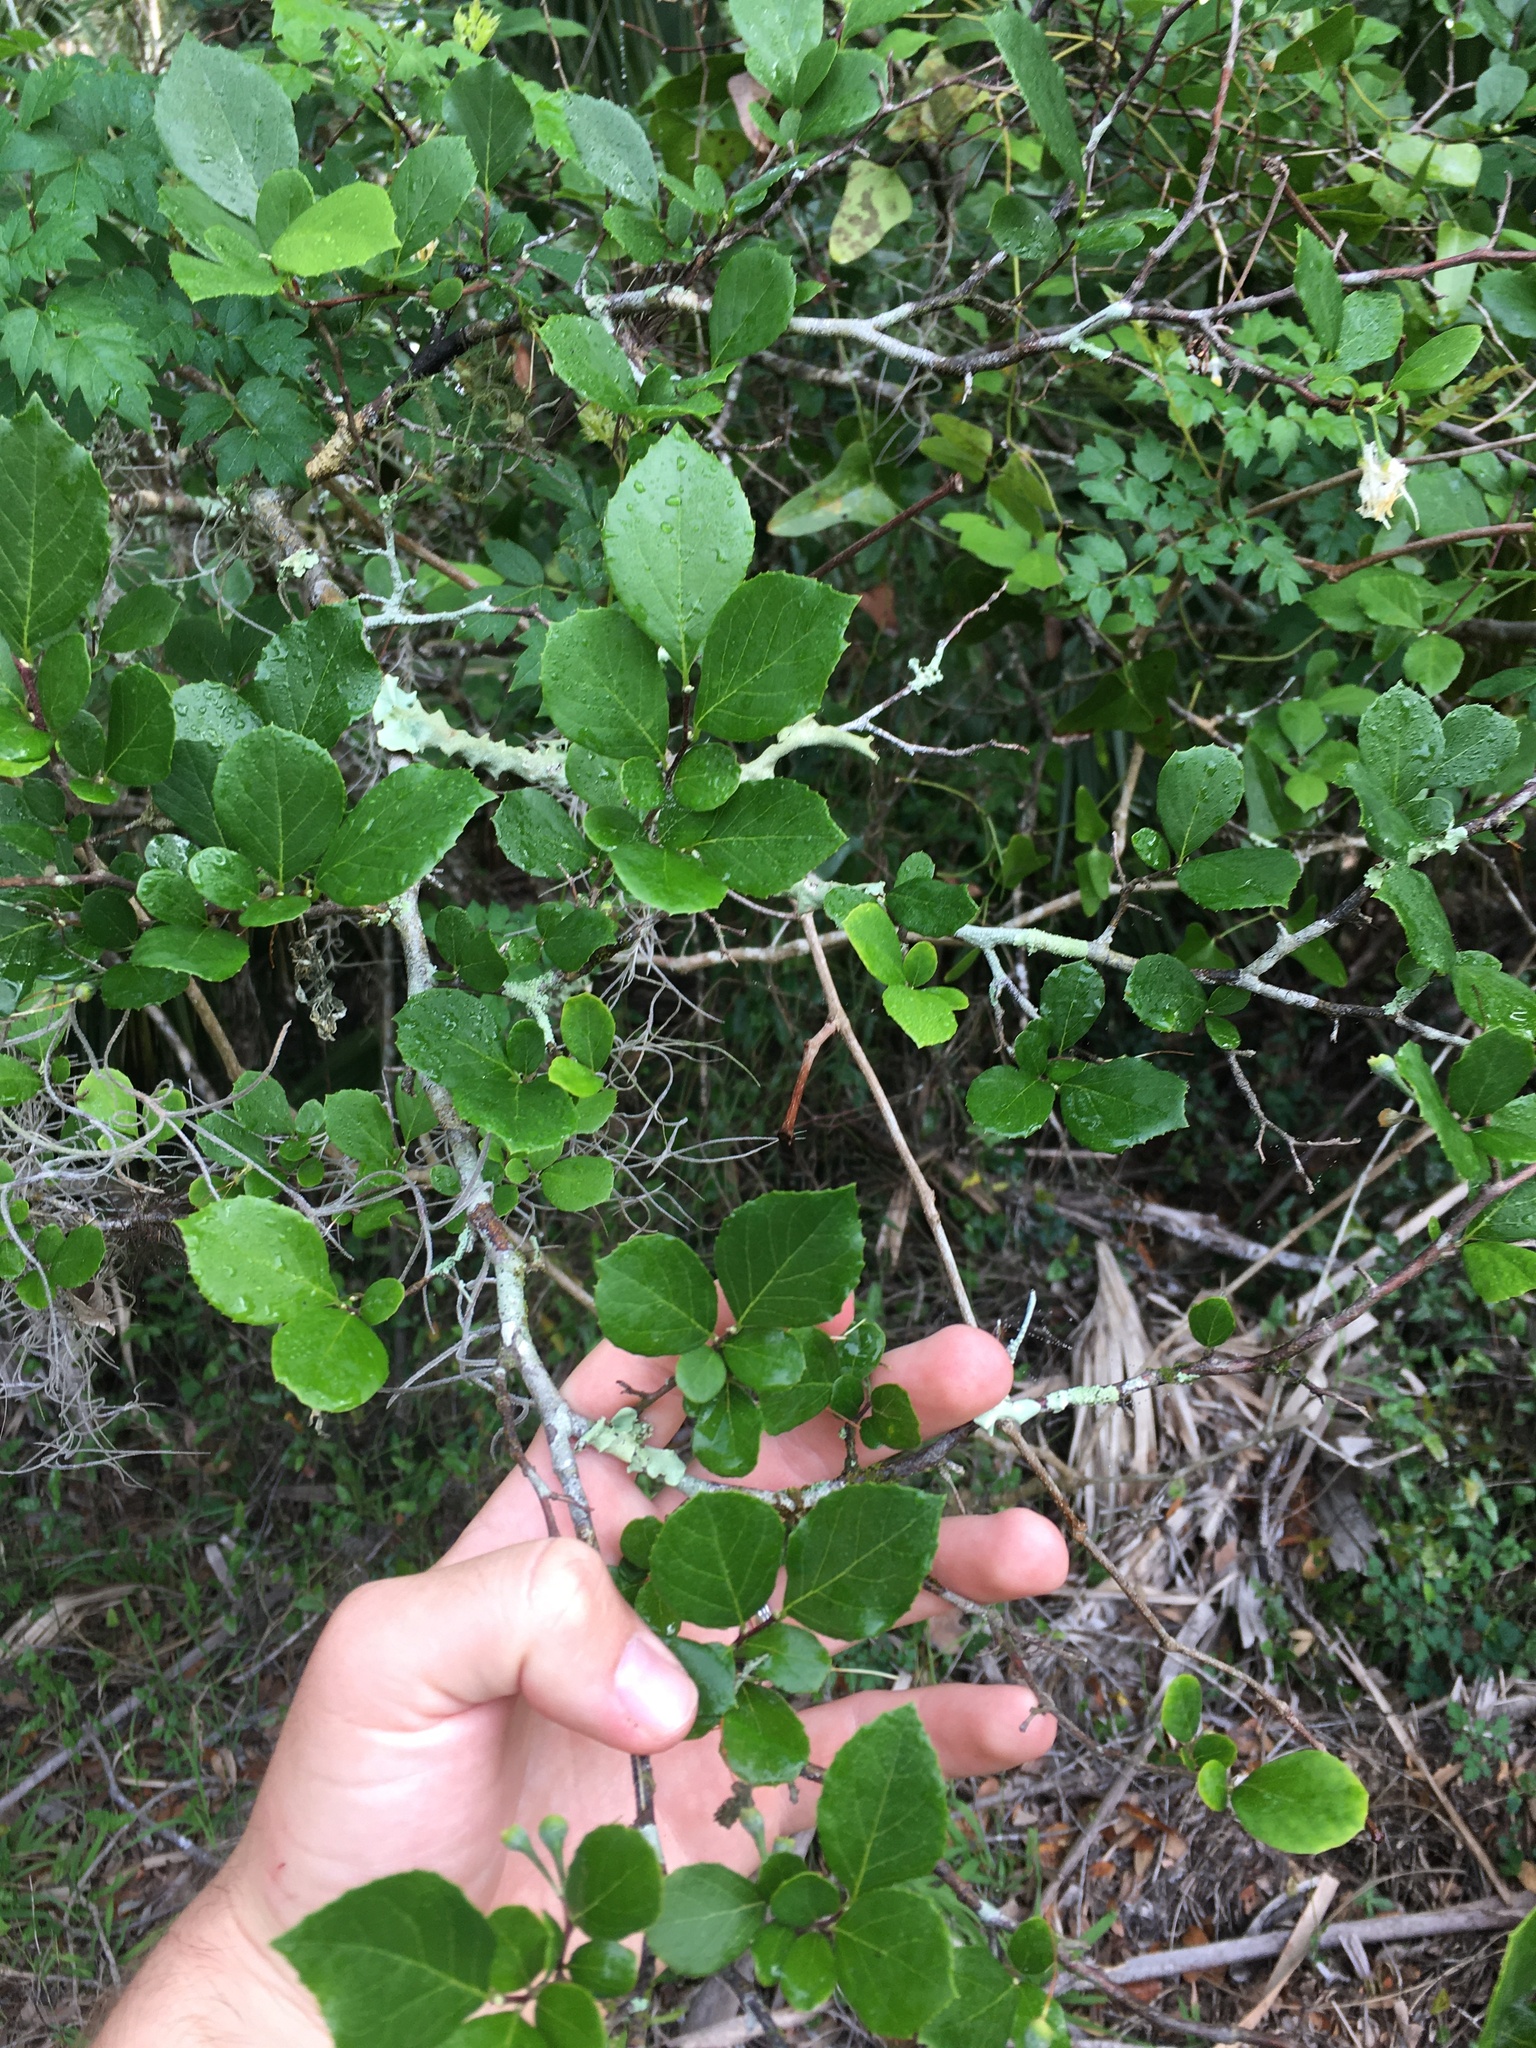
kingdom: Plantae
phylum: Tracheophyta
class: Magnoliopsida
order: Ericales
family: Styracaceae
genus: Styrax
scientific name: Styrax americanus
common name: American snowbell
